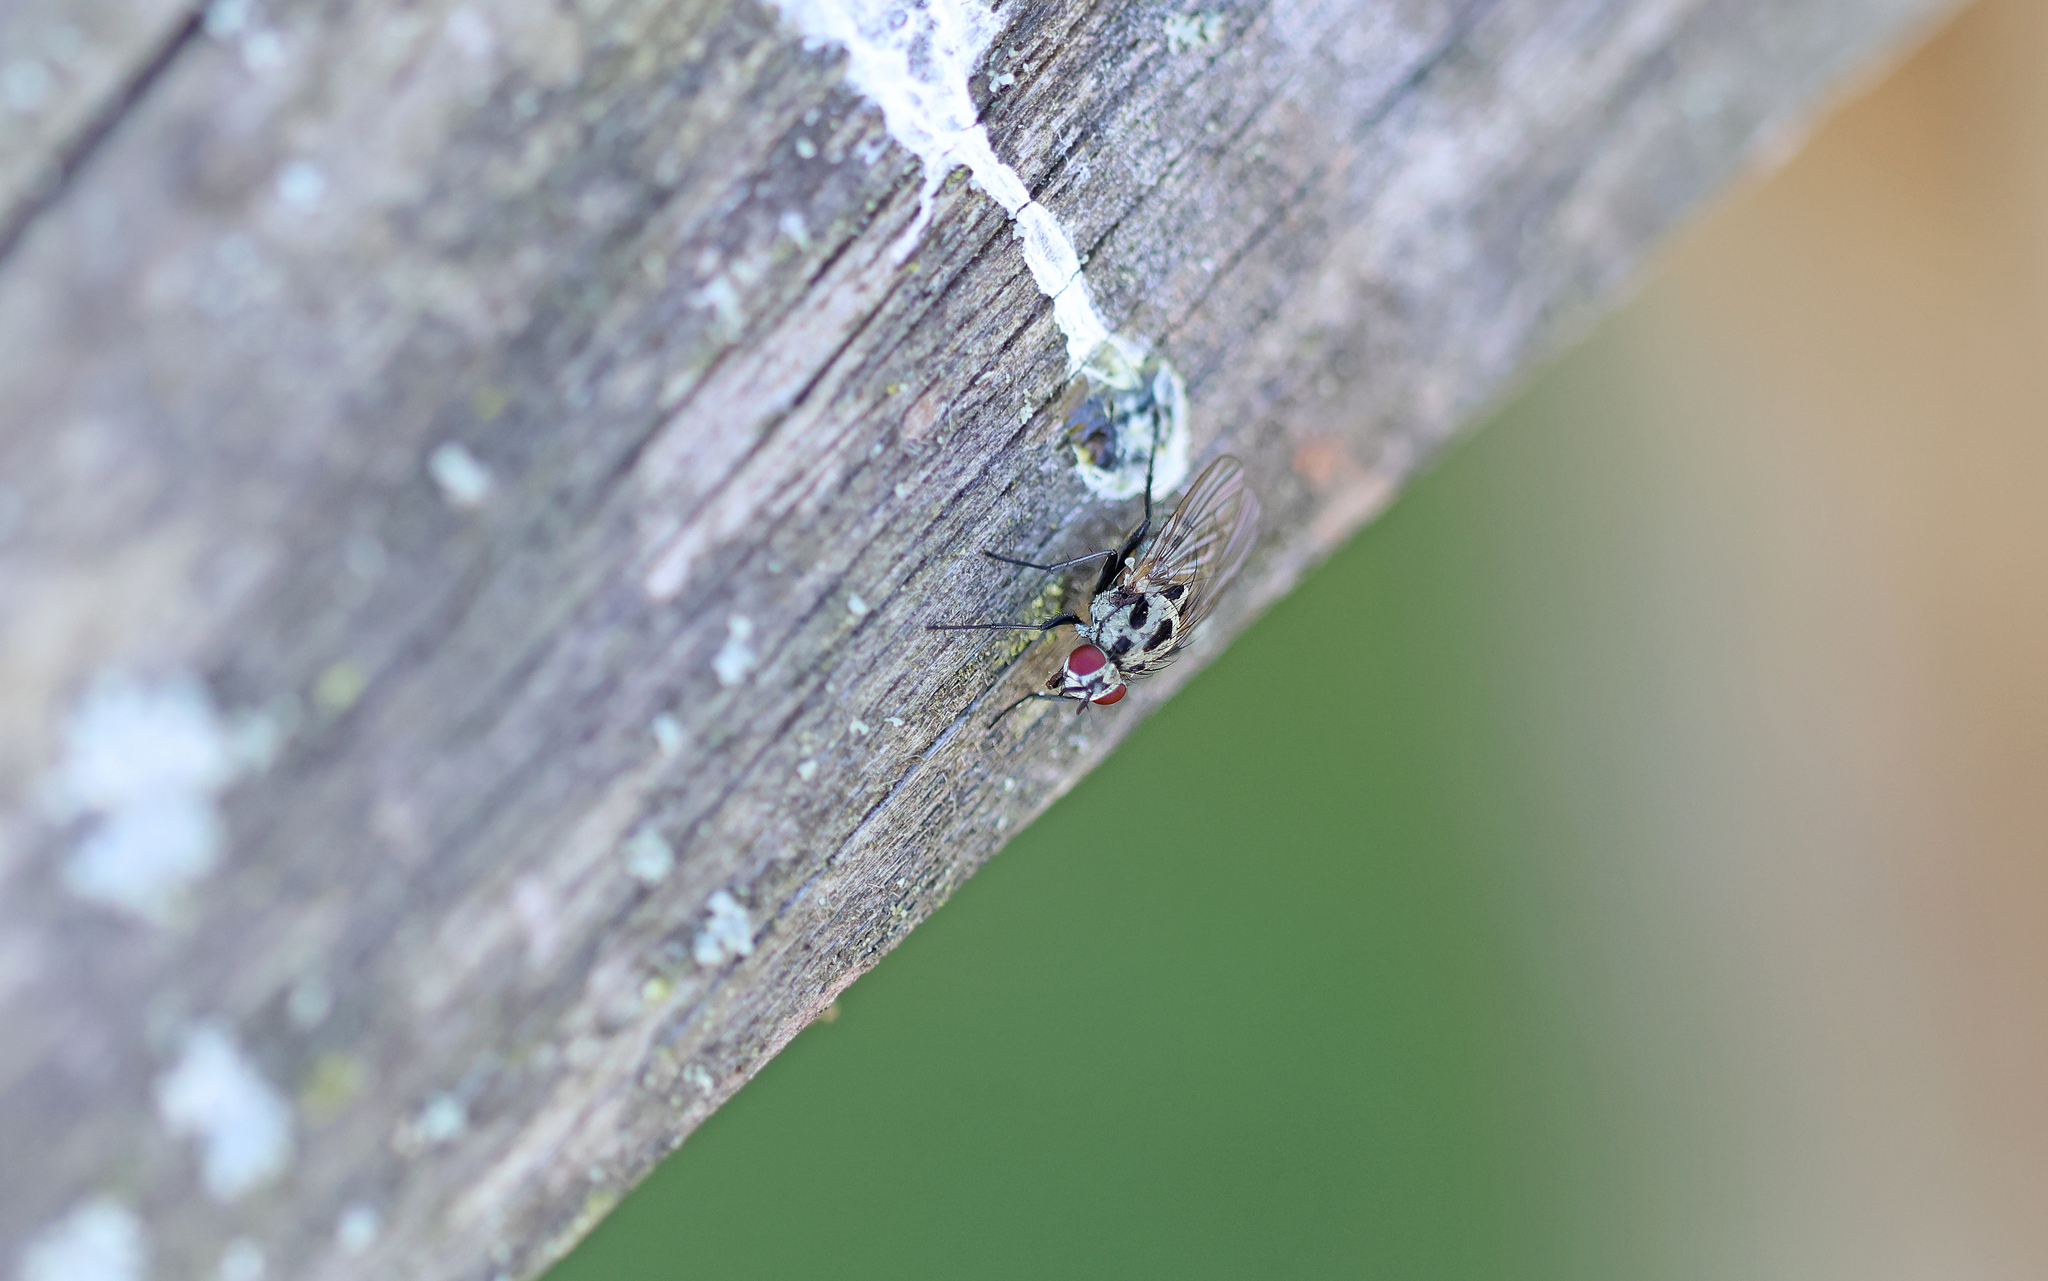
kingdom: Animalia
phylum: Arthropoda
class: Insecta
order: Diptera
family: Anthomyiidae
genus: Anthomyia
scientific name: Anthomyia procellaris
